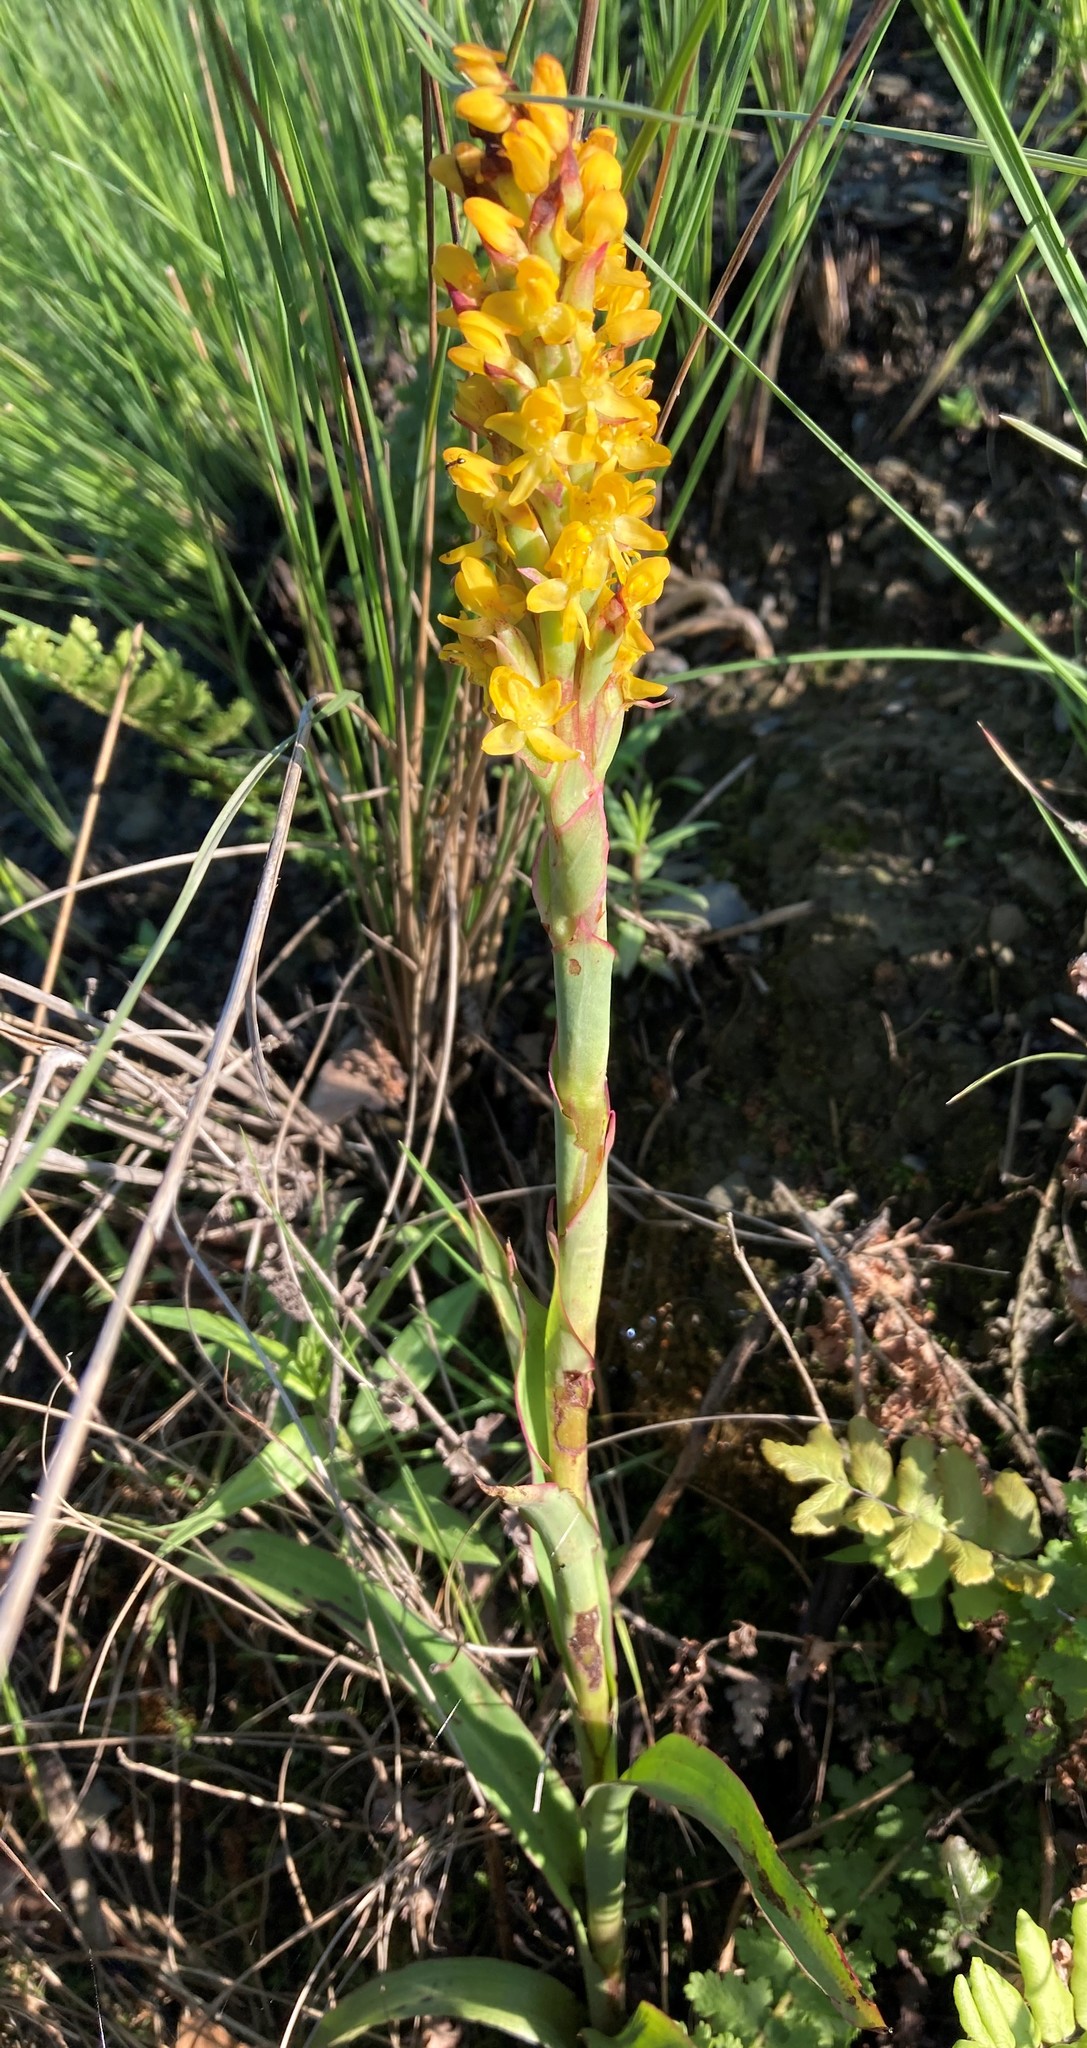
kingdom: Plantae
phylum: Tracheophyta
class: Liliopsida
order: Asparagales
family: Orchidaceae
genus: Disa
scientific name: Disa woodii
